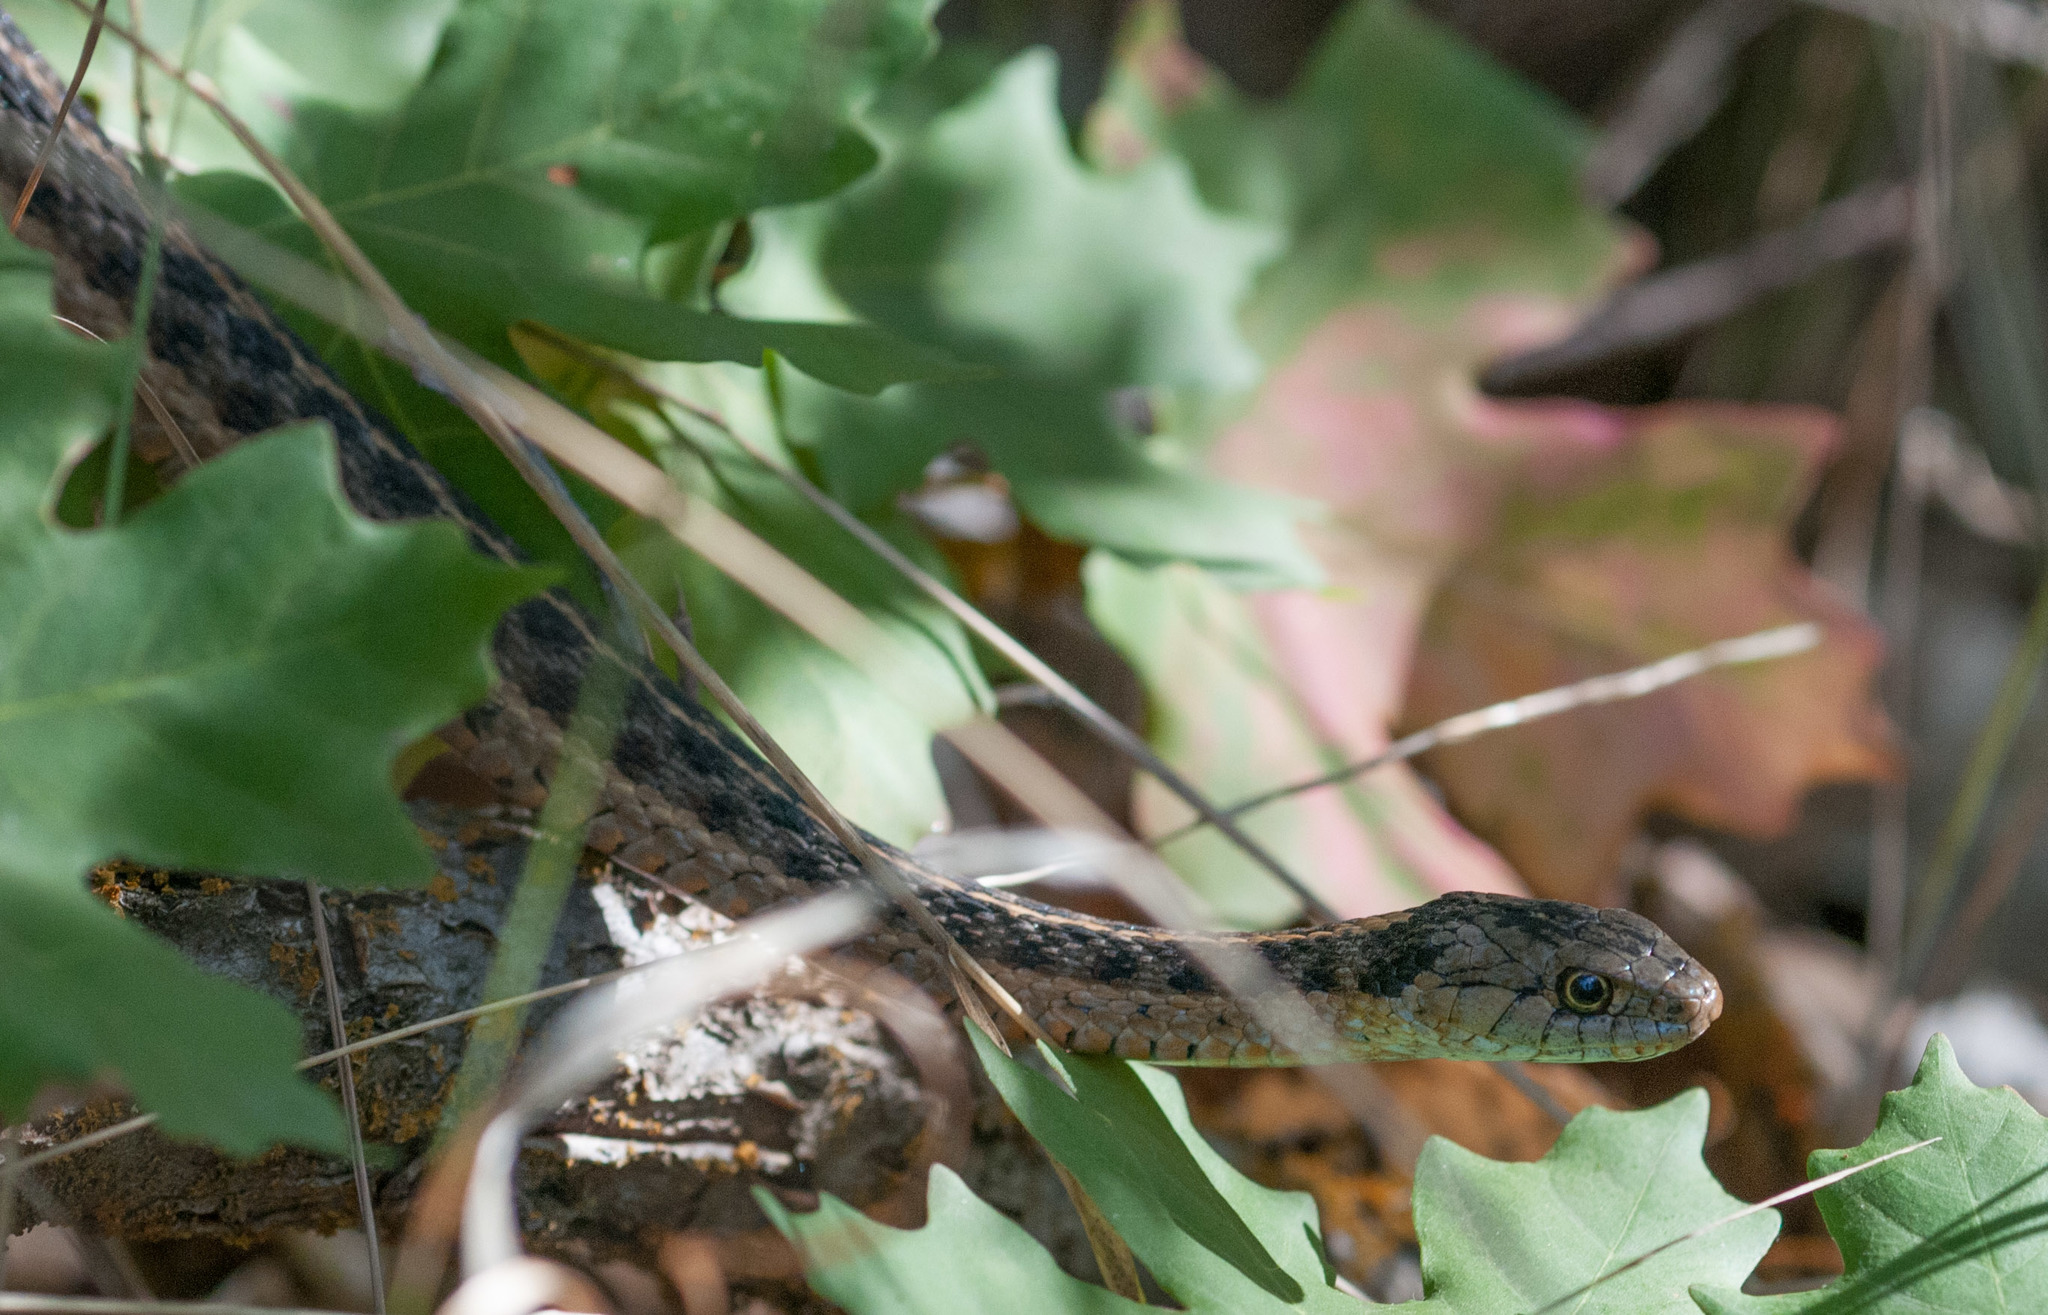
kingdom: Animalia
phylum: Chordata
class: Squamata
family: Colubridae
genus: Thamnophis
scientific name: Thamnophis elegans
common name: Western terrestrial garter snake
